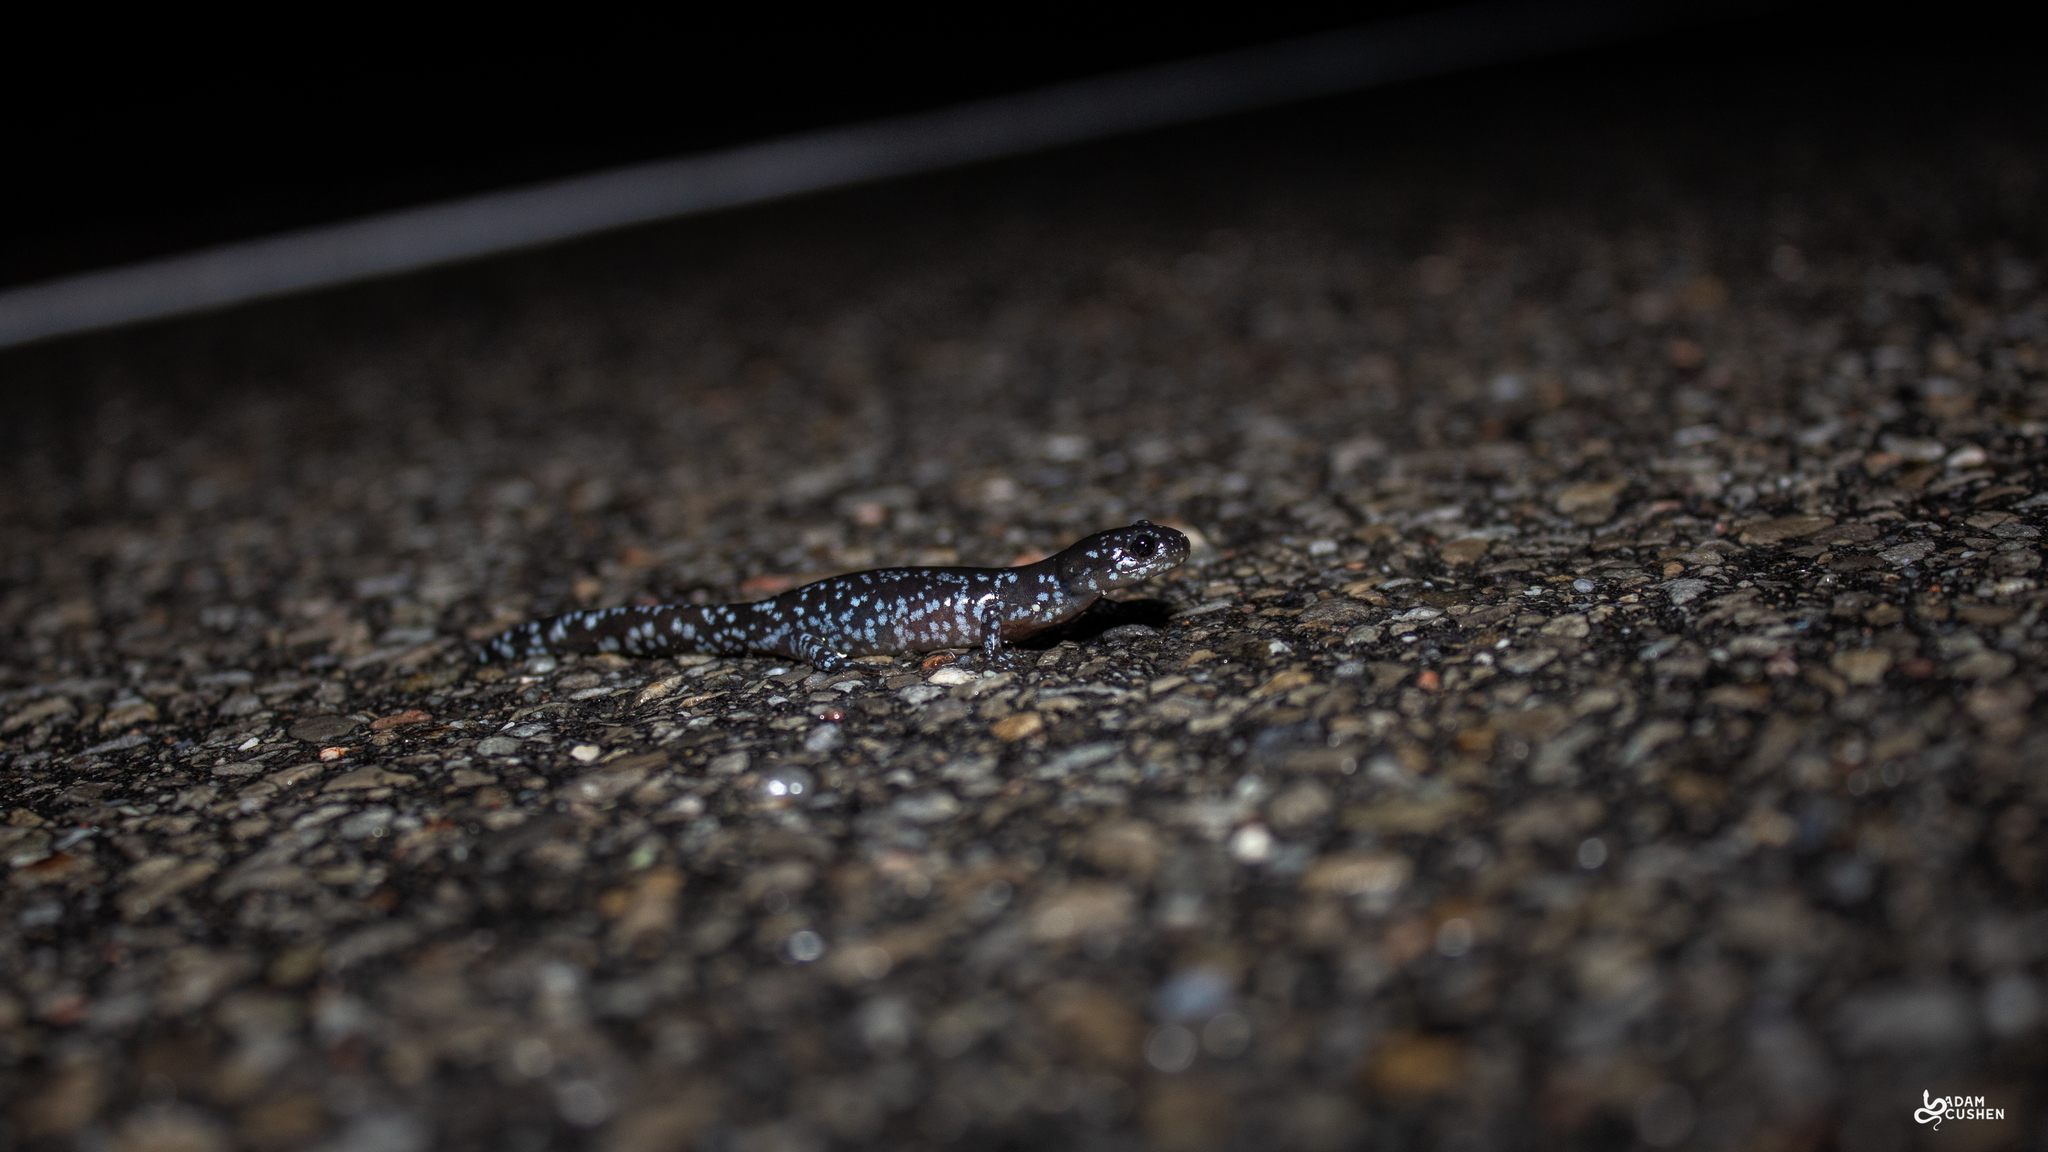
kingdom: Animalia
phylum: Chordata
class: Amphibia
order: Caudata
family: Ambystomatidae
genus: Ambystoma
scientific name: Ambystoma laterale
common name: Blue-spotted salamander
